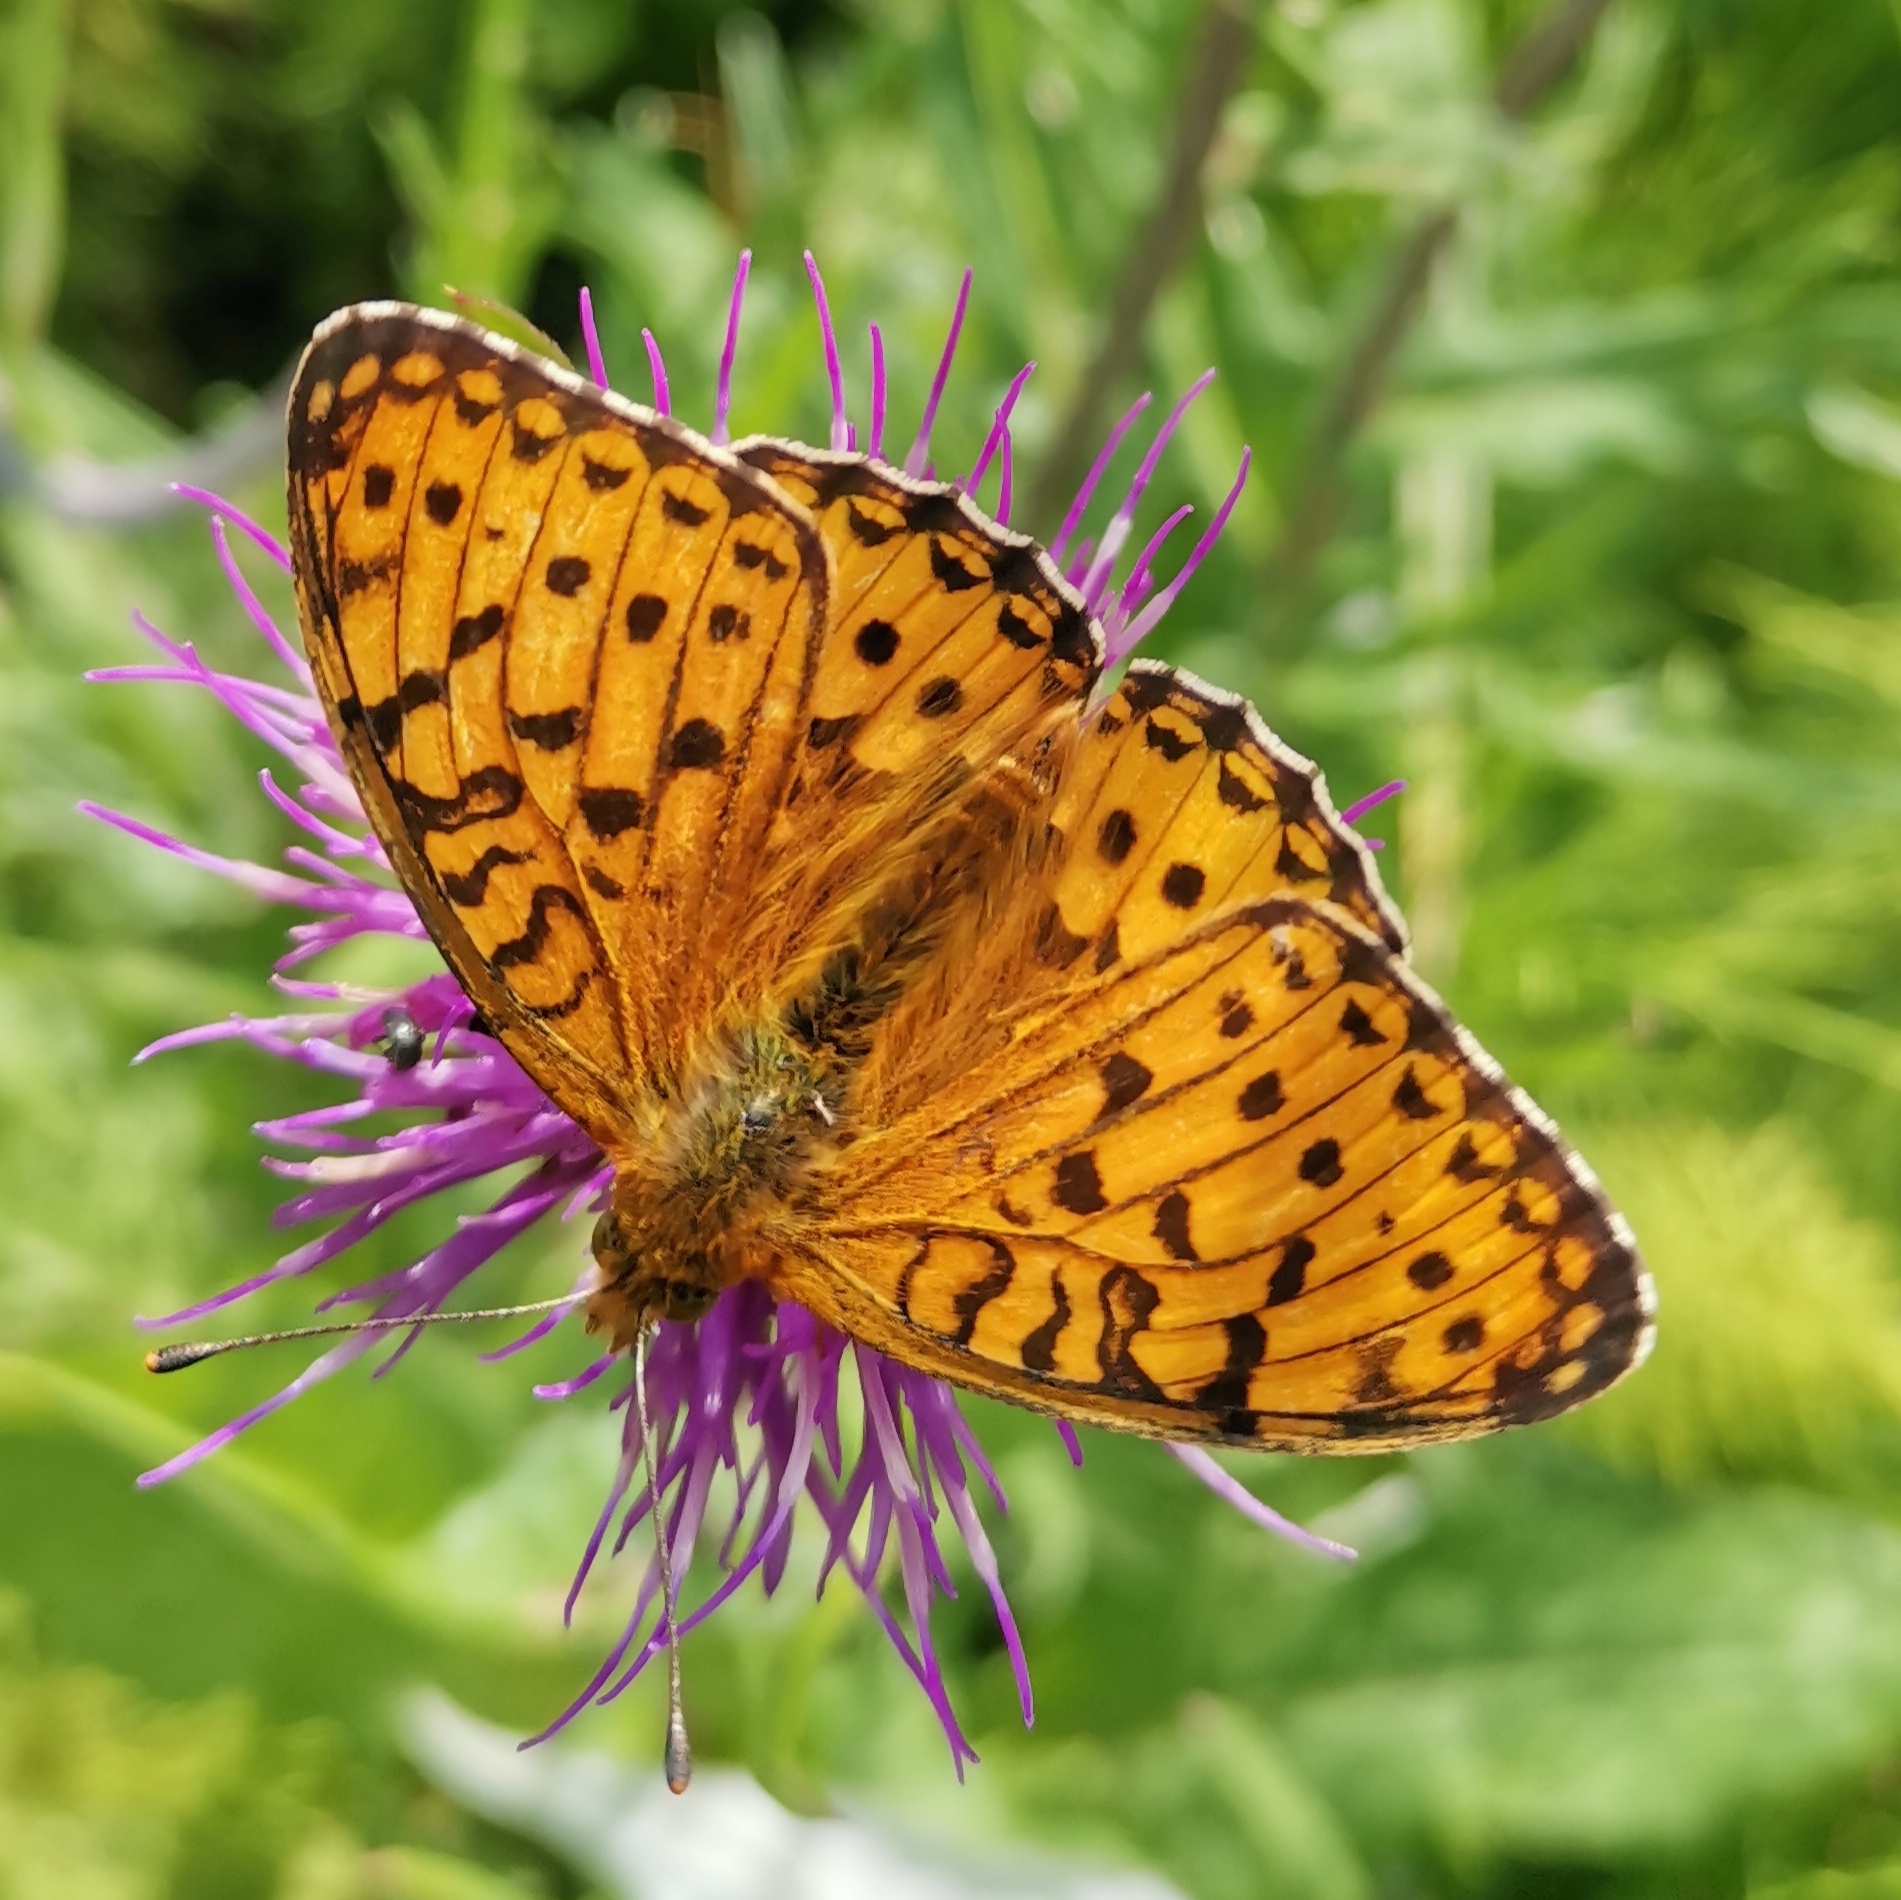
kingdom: Animalia
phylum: Arthropoda
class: Insecta
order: Lepidoptera
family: Nymphalidae
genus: Speyeria
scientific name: Speyeria aglaja
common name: Dark green fritillary
